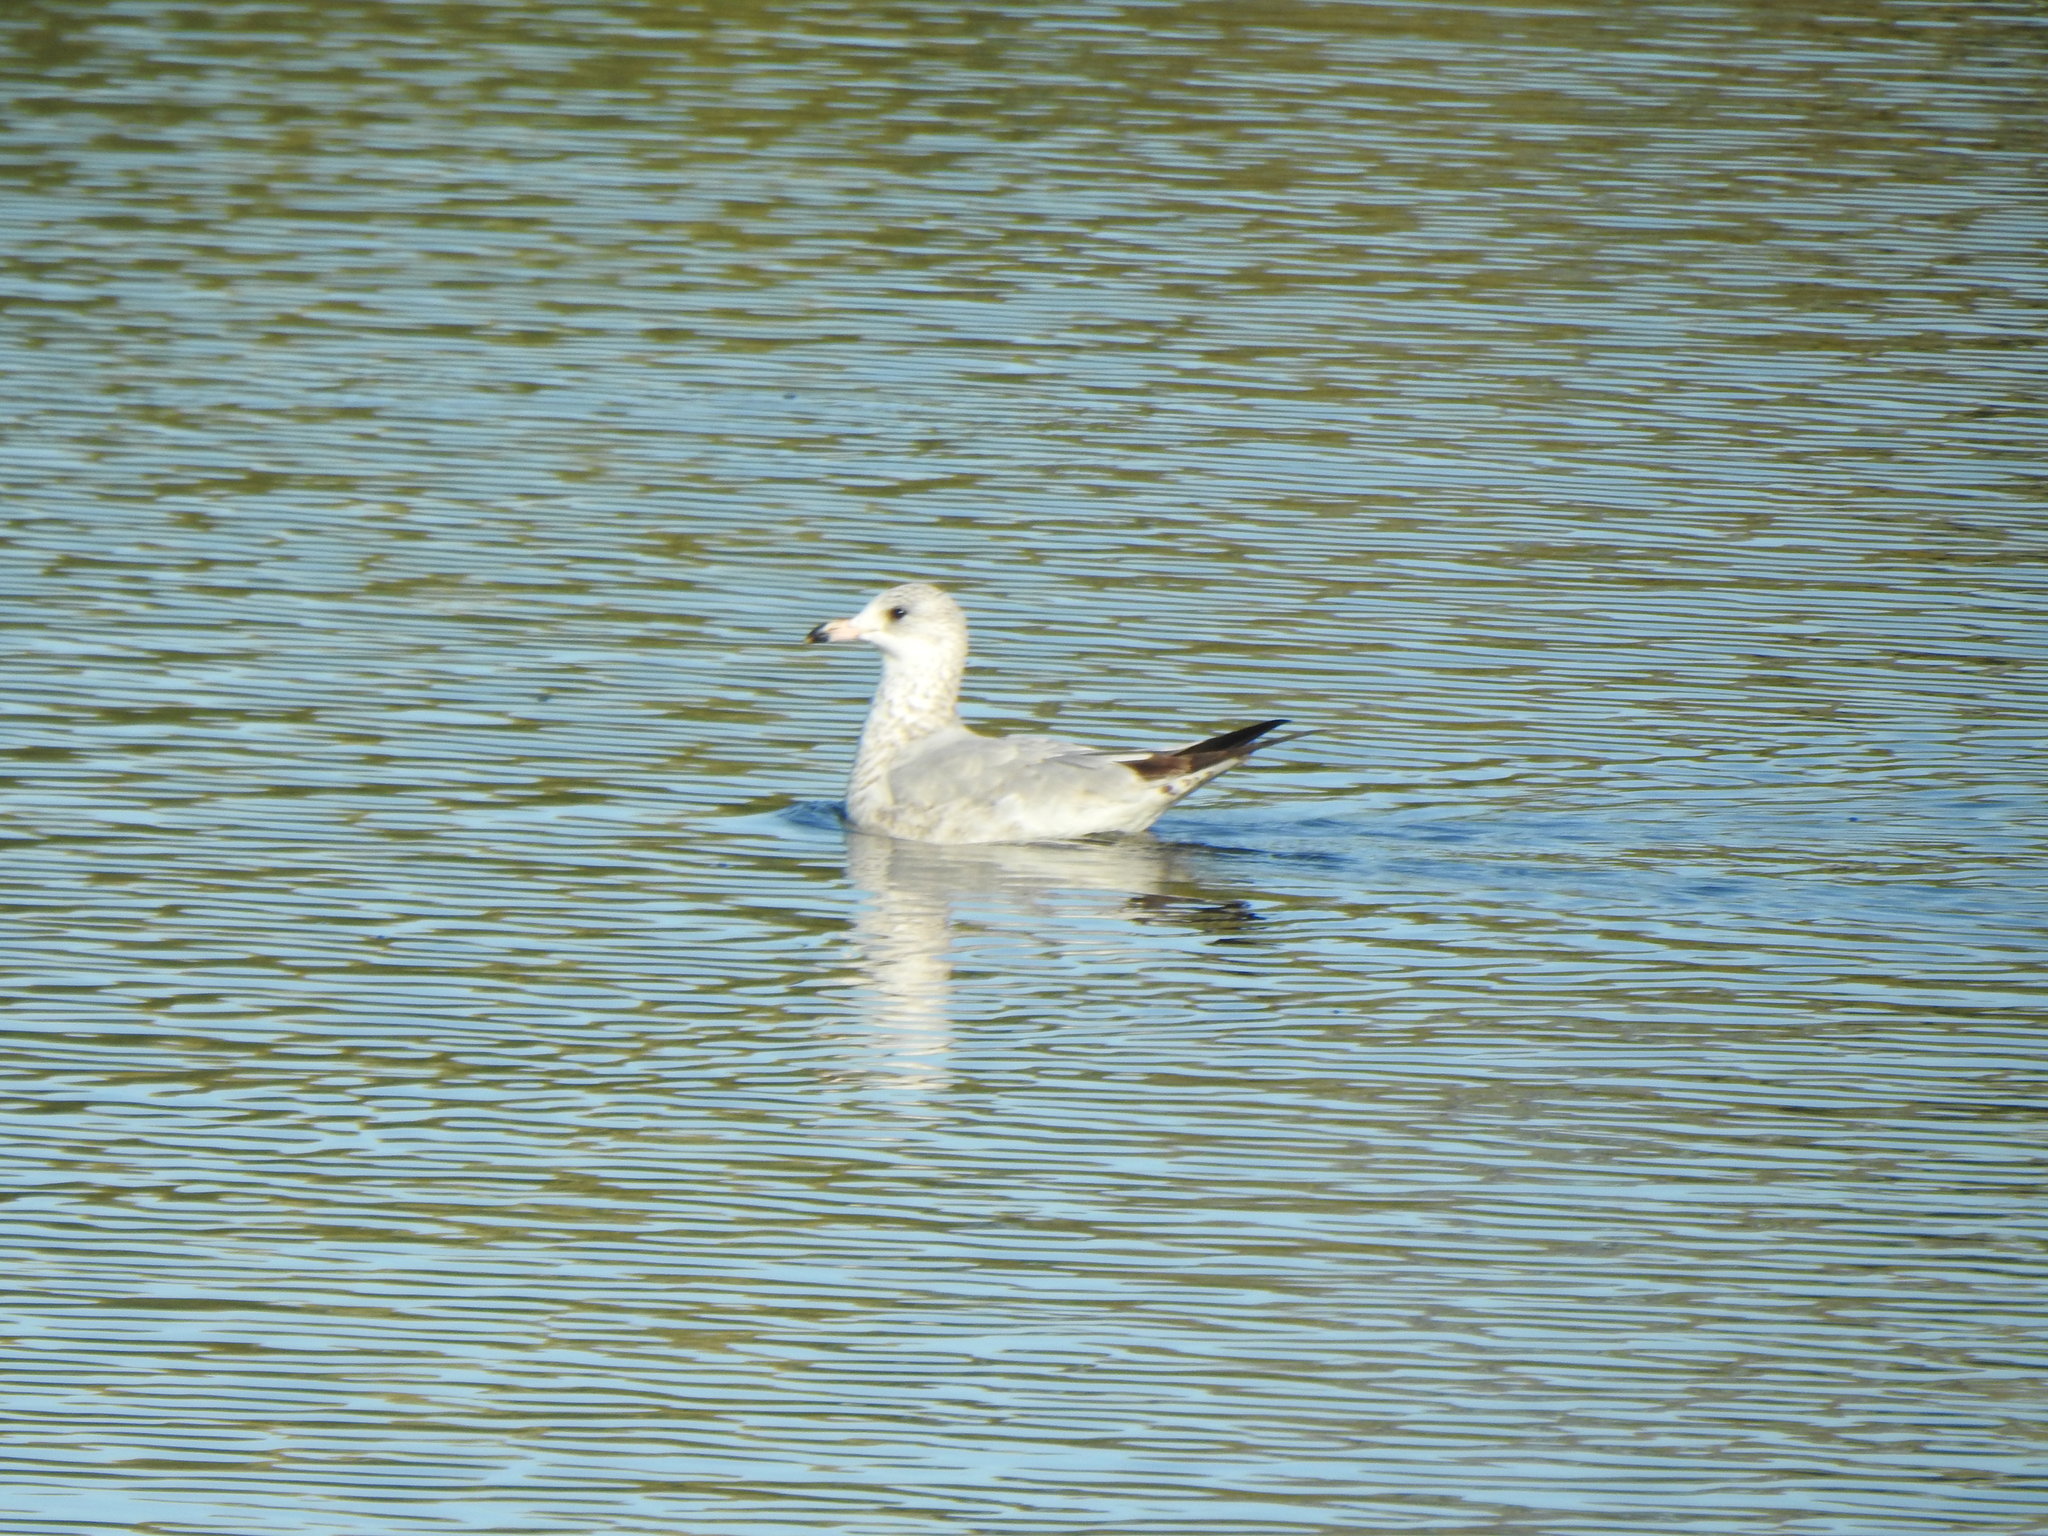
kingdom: Animalia
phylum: Chordata
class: Aves
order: Charadriiformes
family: Laridae
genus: Larus
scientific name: Larus delawarensis
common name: Ring-billed gull
